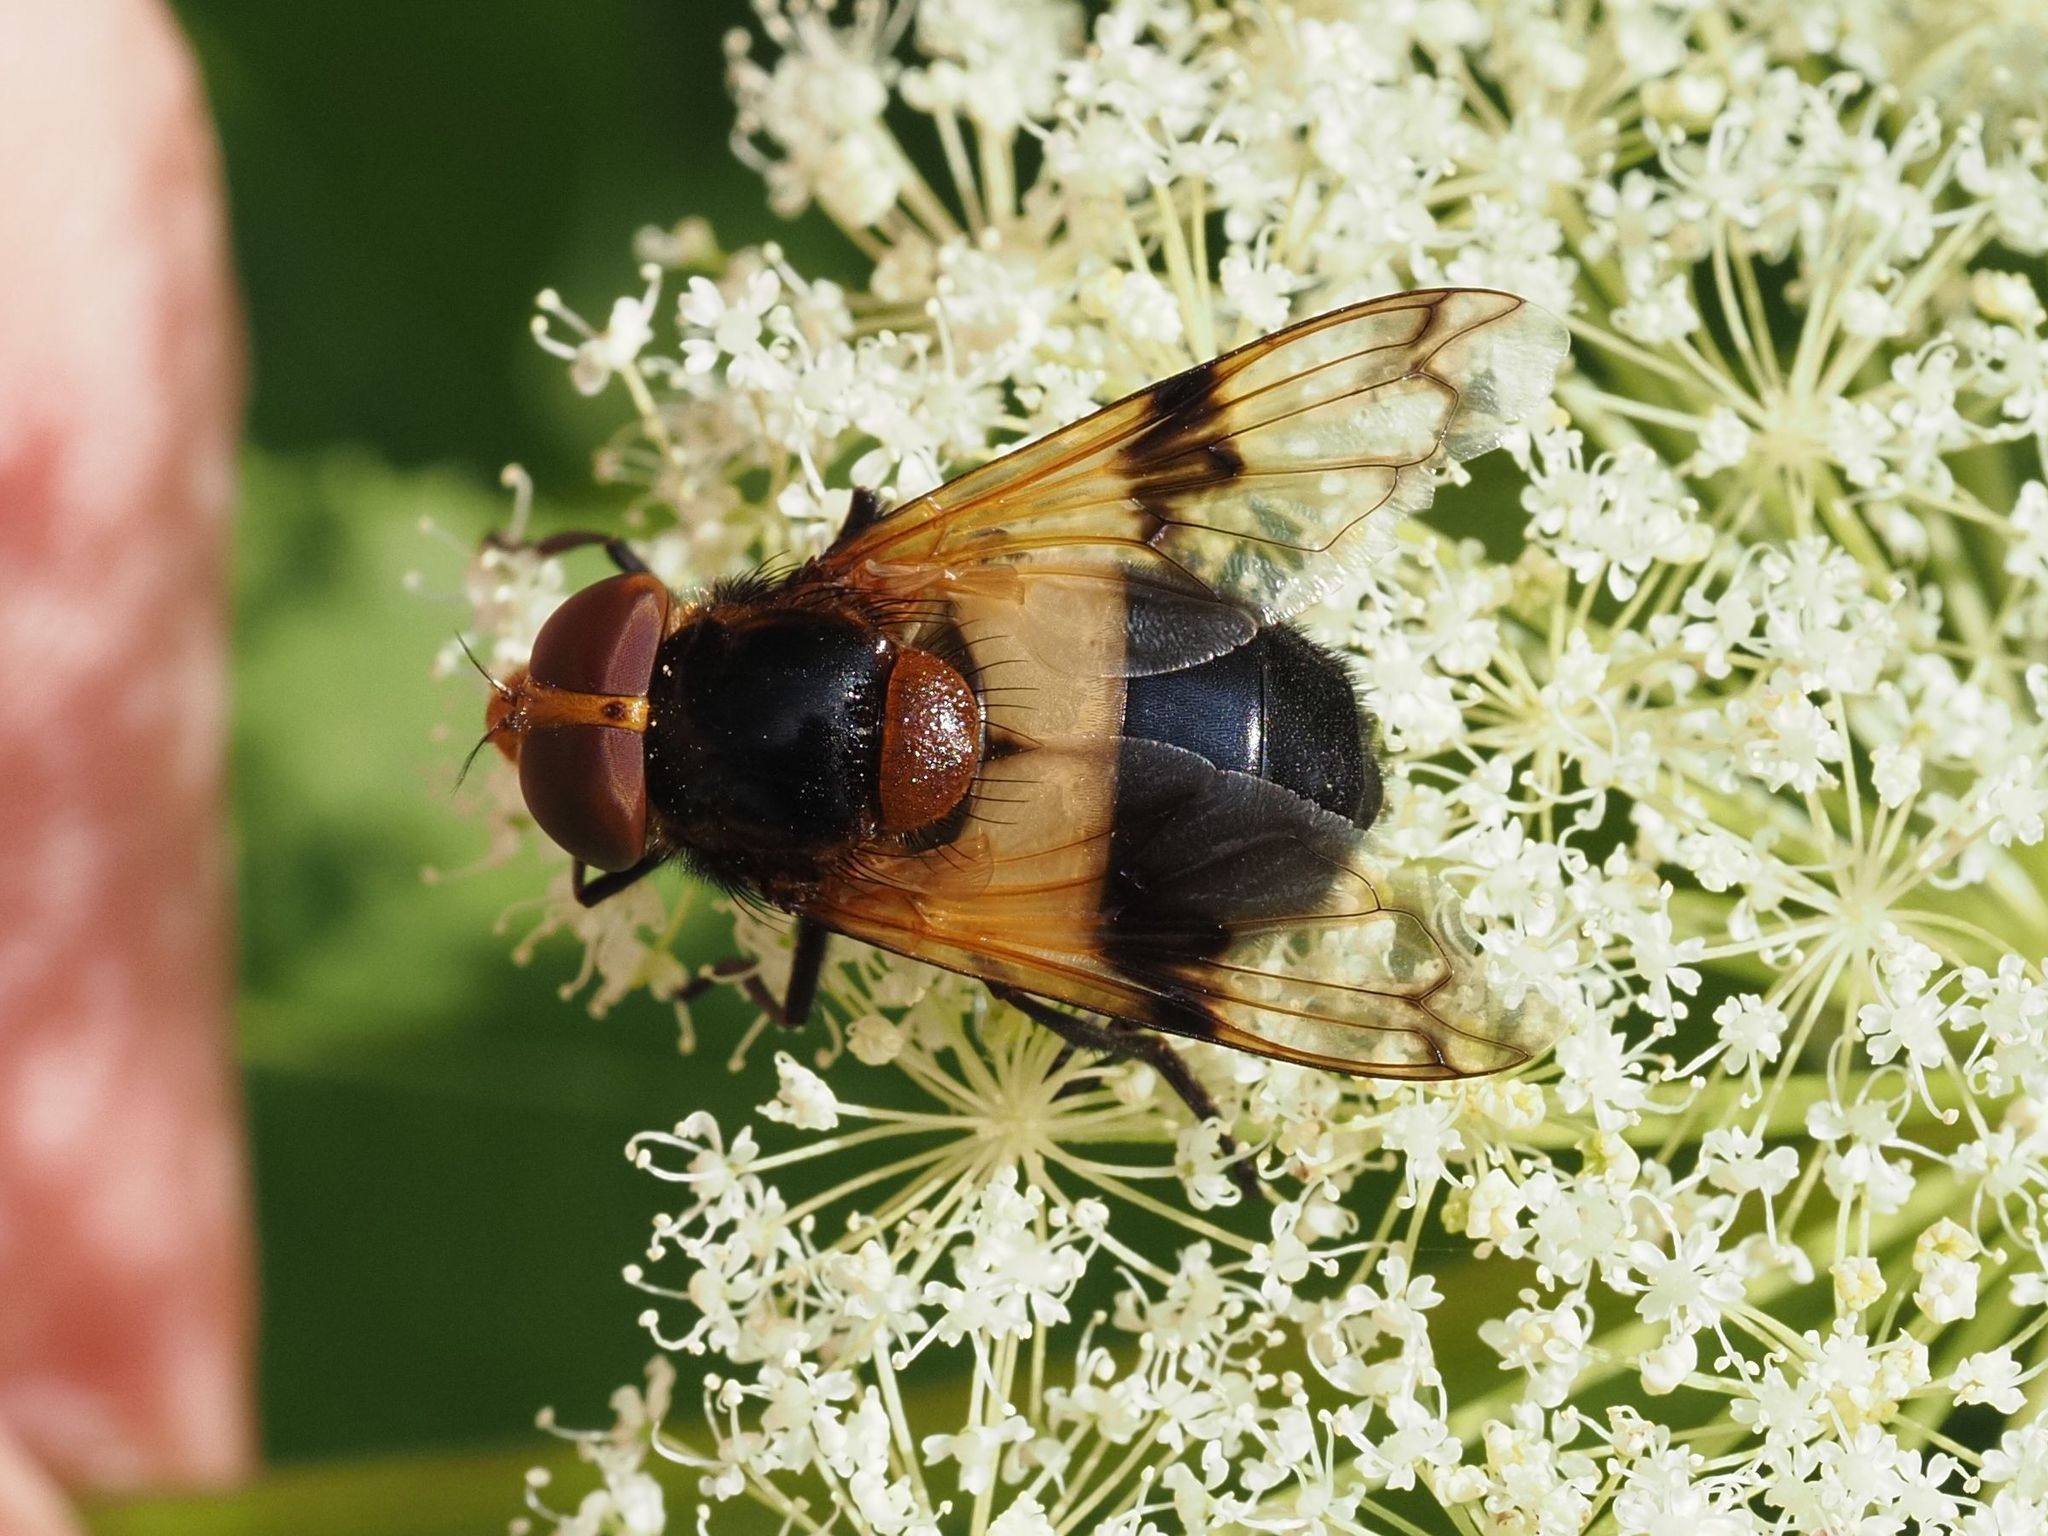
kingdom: Animalia
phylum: Arthropoda
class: Insecta
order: Diptera
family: Syrphidae
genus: Volucella
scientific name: Volucella pellucens
